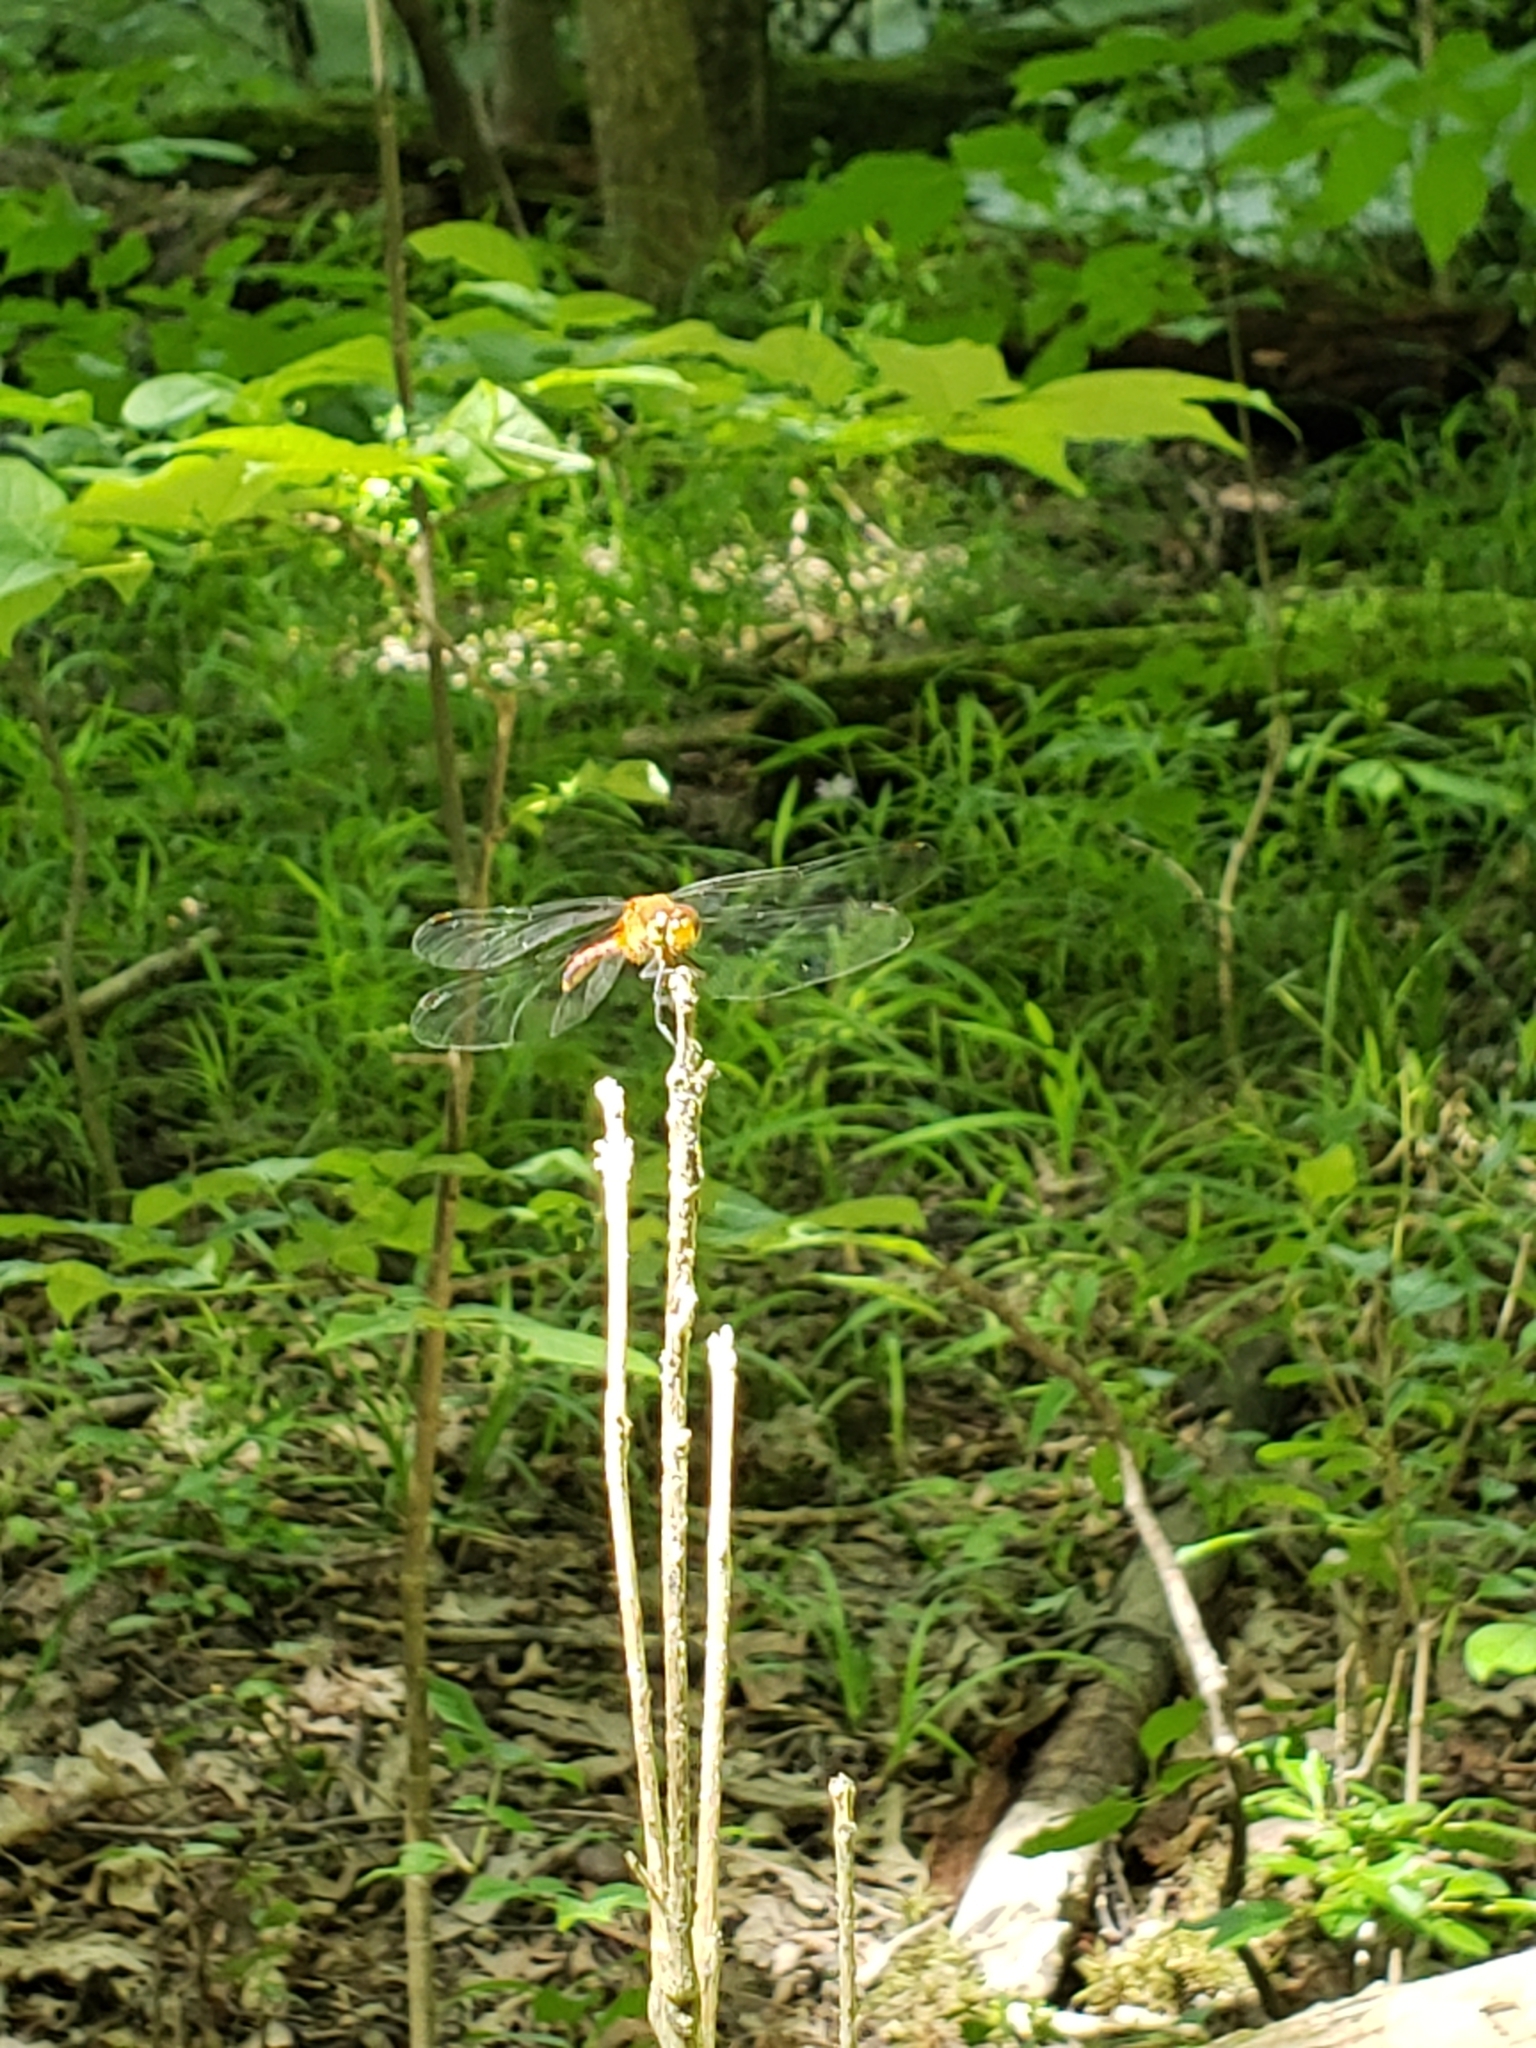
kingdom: Animalia
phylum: Arthropoda
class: Insecta
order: Odonata
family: Libellulidae
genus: Sympetrum
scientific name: Sympetrum vicinum
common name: Autumn meadowhawk
